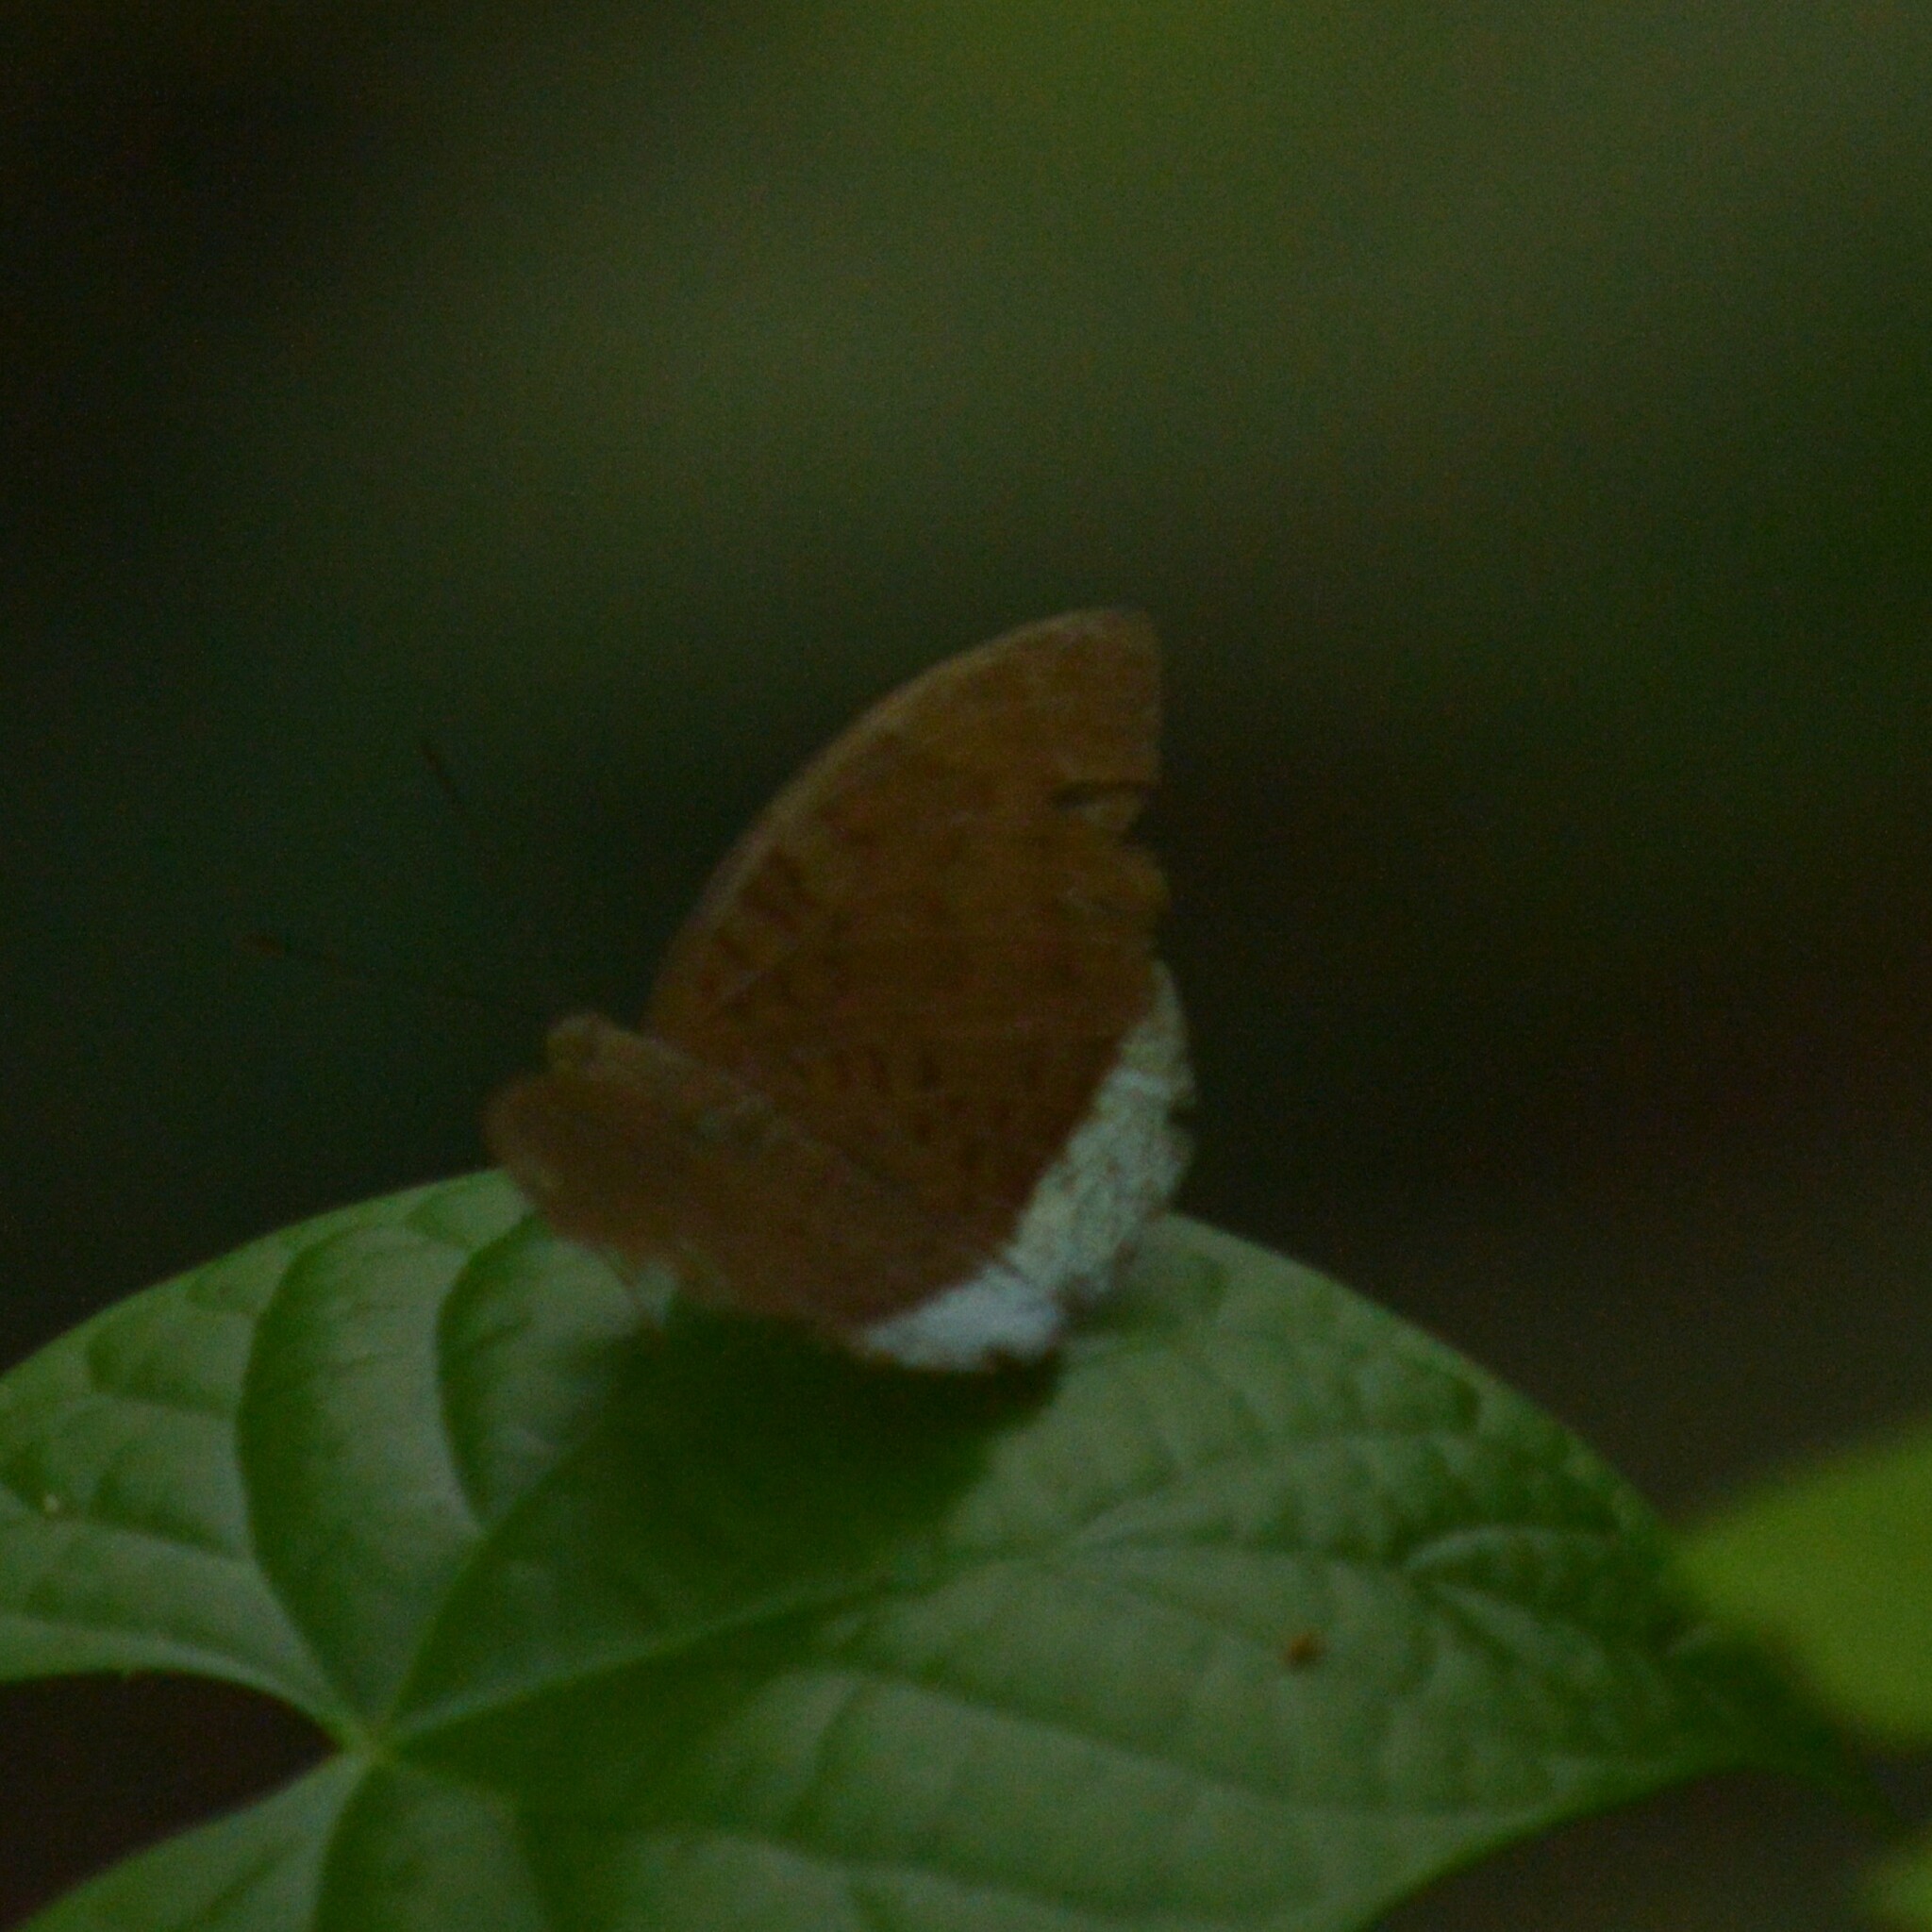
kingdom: Animalia
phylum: Arthropoda
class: Insecta
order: Lepidoptera
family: Nymphalidae
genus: Tanaecia
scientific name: Tanaecia julii
